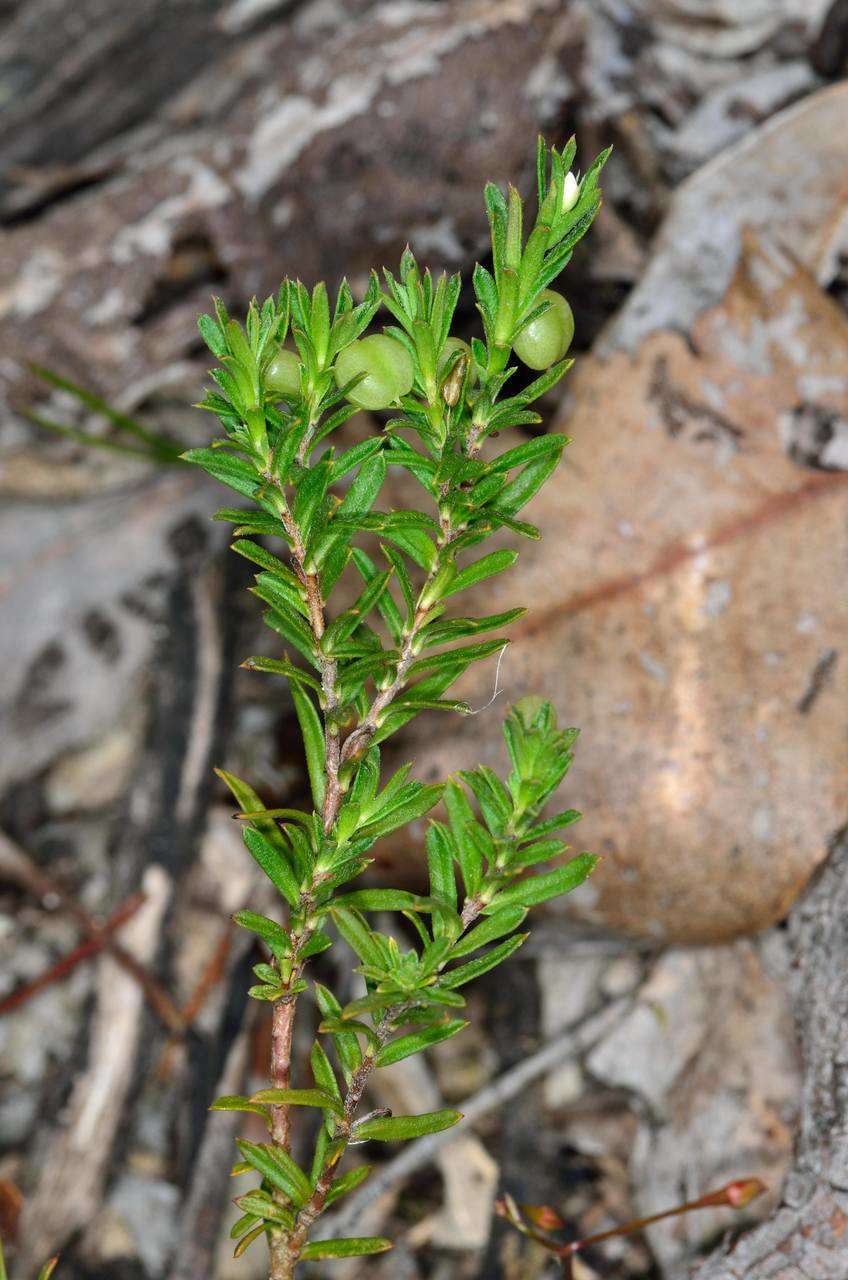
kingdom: Plantae
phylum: Tracheophyta
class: Magnoliopsida
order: Apiales
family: Pittosporaceae
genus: Rhytidosporum
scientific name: Rhytidosporum procumbens
